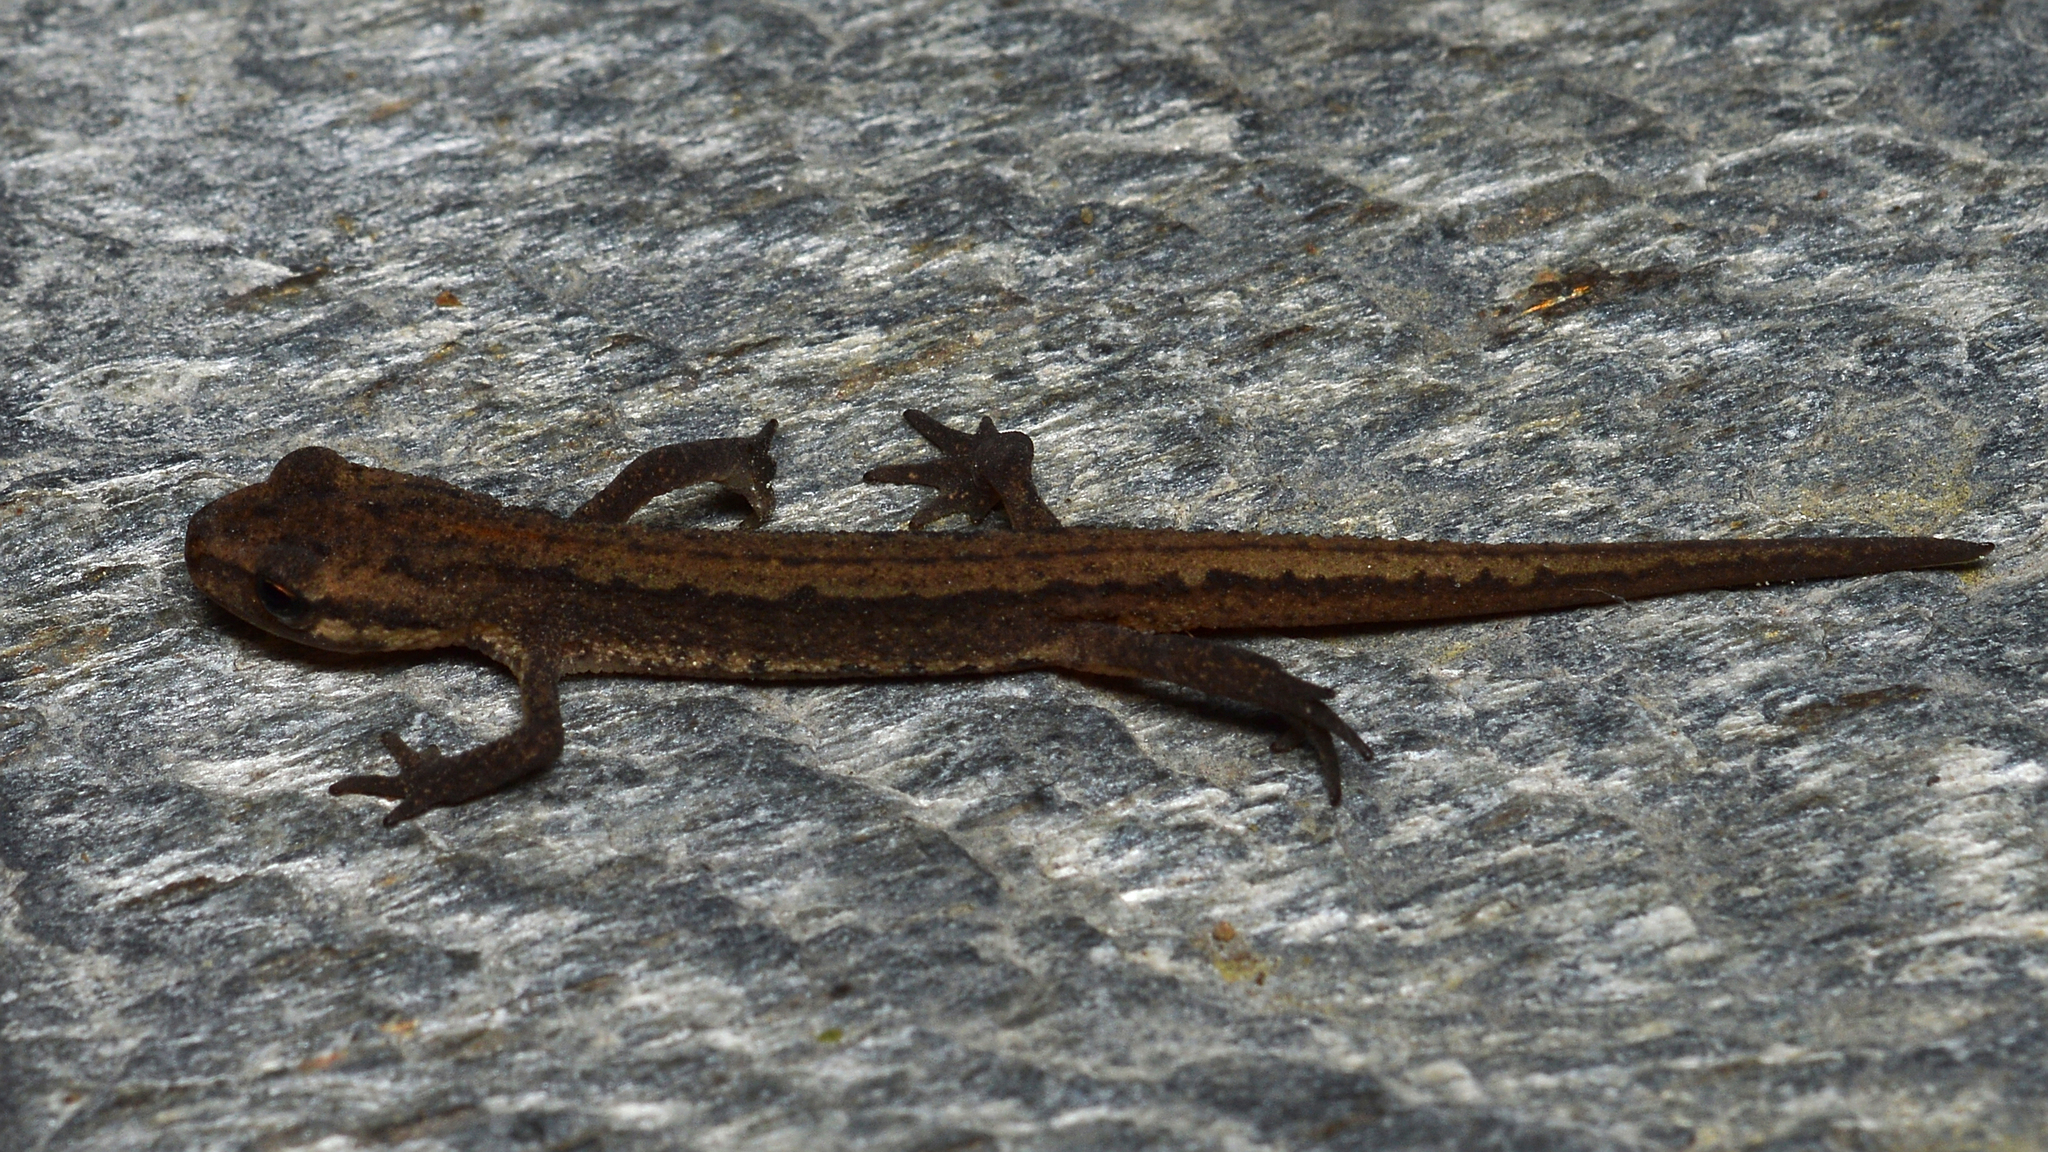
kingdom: Animalia
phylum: Chordata
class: Amphibia
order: Caudata
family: Salamandridae
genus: Lissotriton
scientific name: Lissotriton vulgaris
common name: Smooth newt
